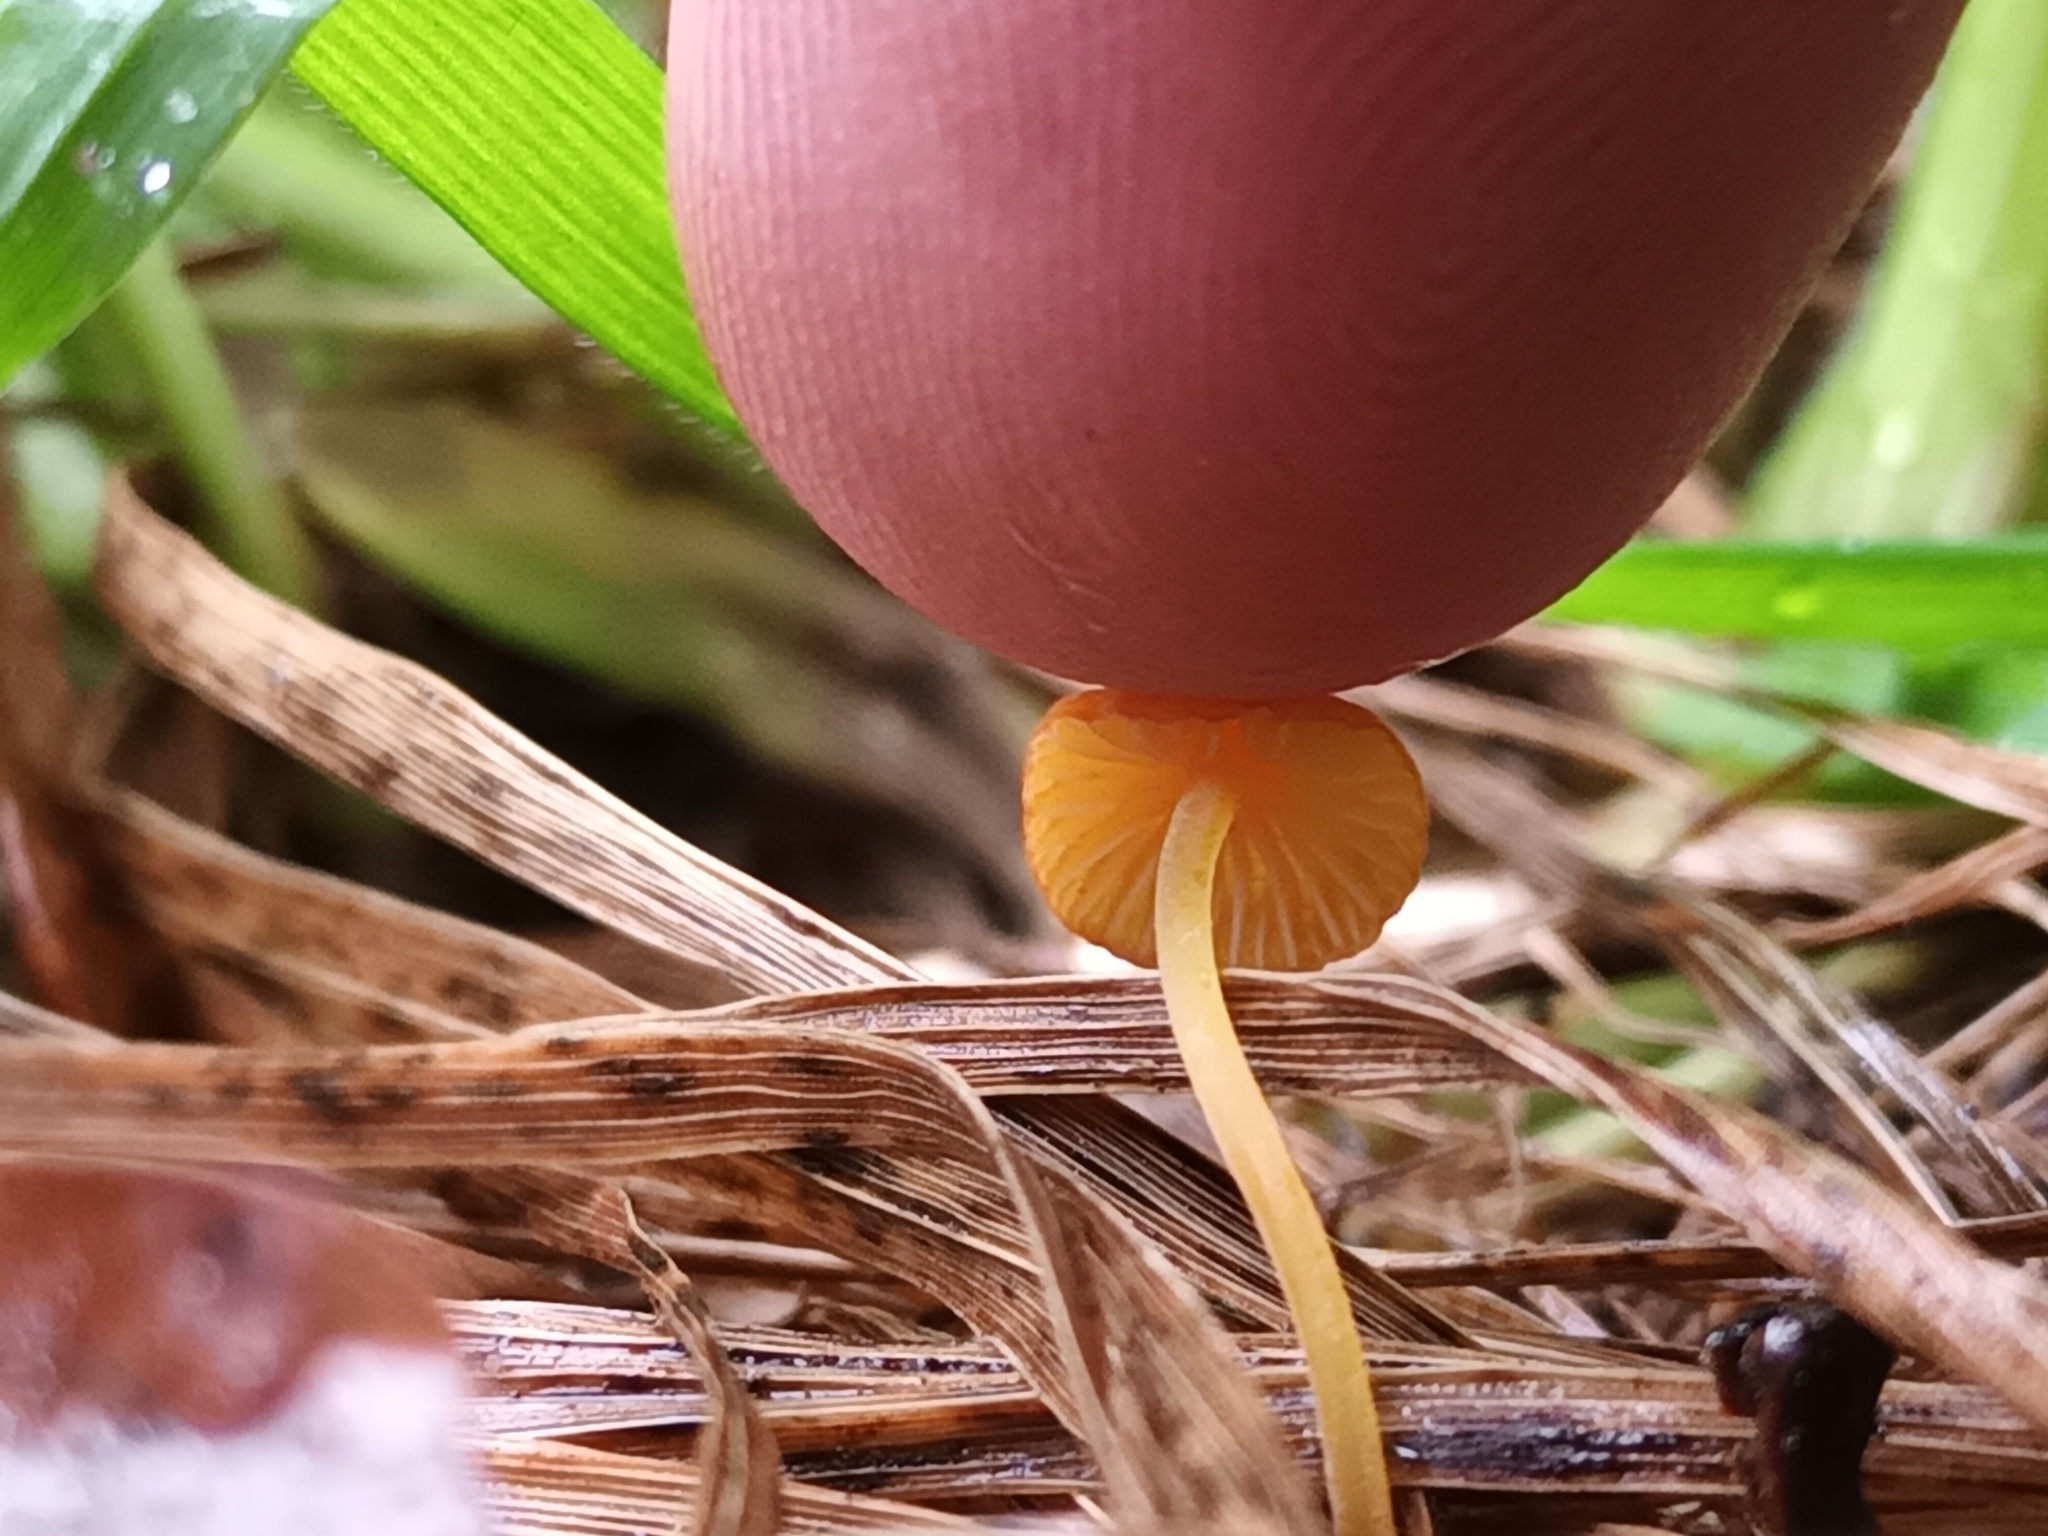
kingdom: Fungi
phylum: Basidiomycota
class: Agaricomycetes
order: Agaricales
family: Mycenaceae
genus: Mycena
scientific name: Mycena acicula
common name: Orange bonnet
